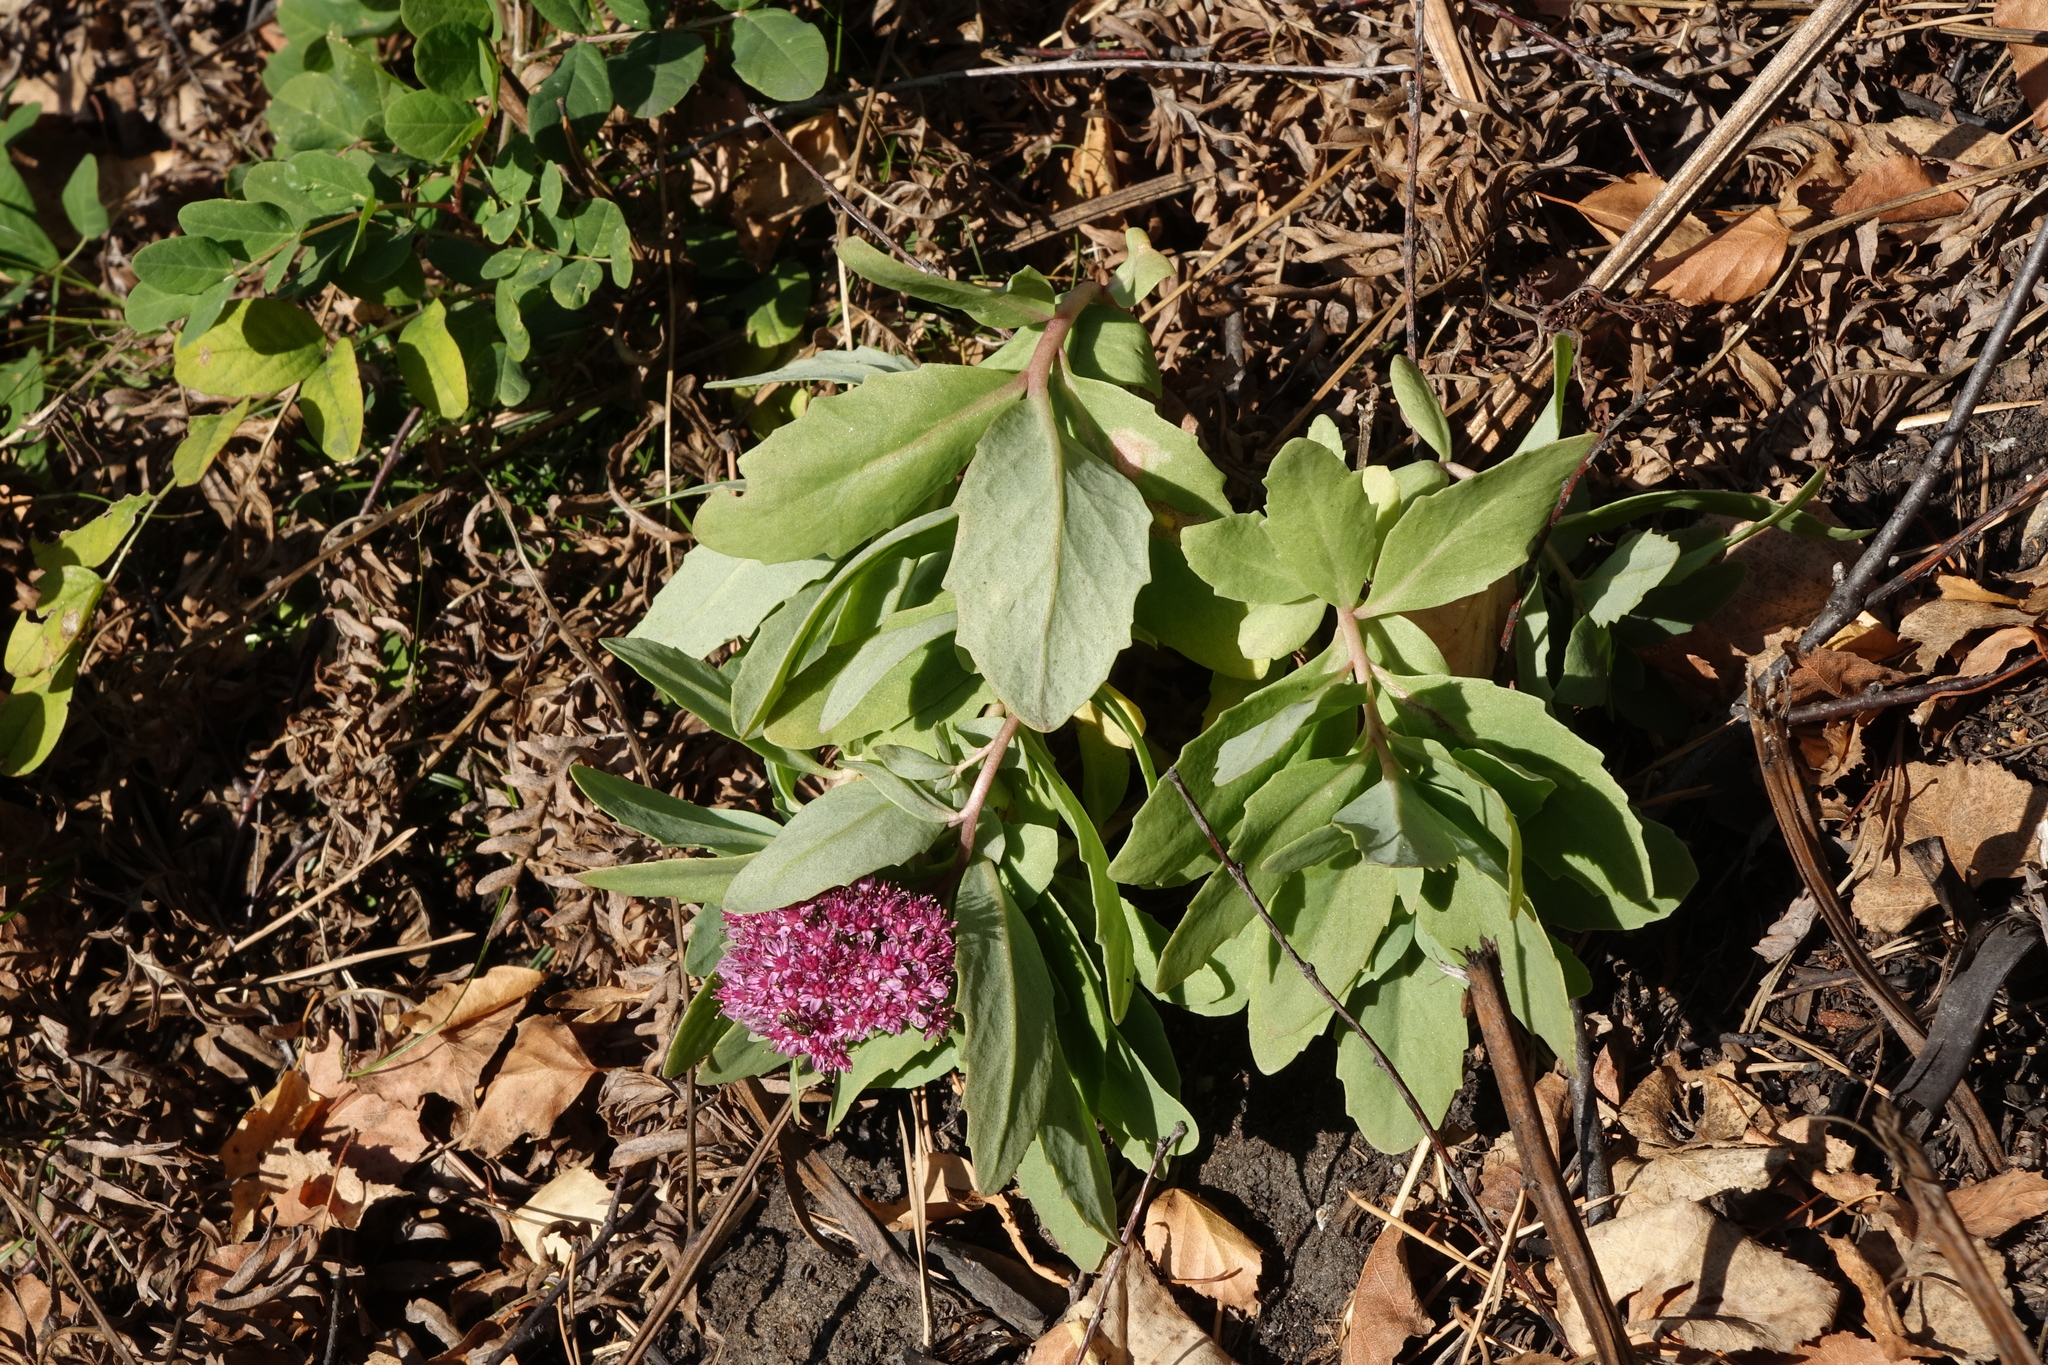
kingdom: Plantae
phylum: Tracheophyta
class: Magnoliopsida
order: Saxifragales
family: Crassulaceae
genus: Hylotelephium
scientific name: Hylotelephium telephium
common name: Live-forever
